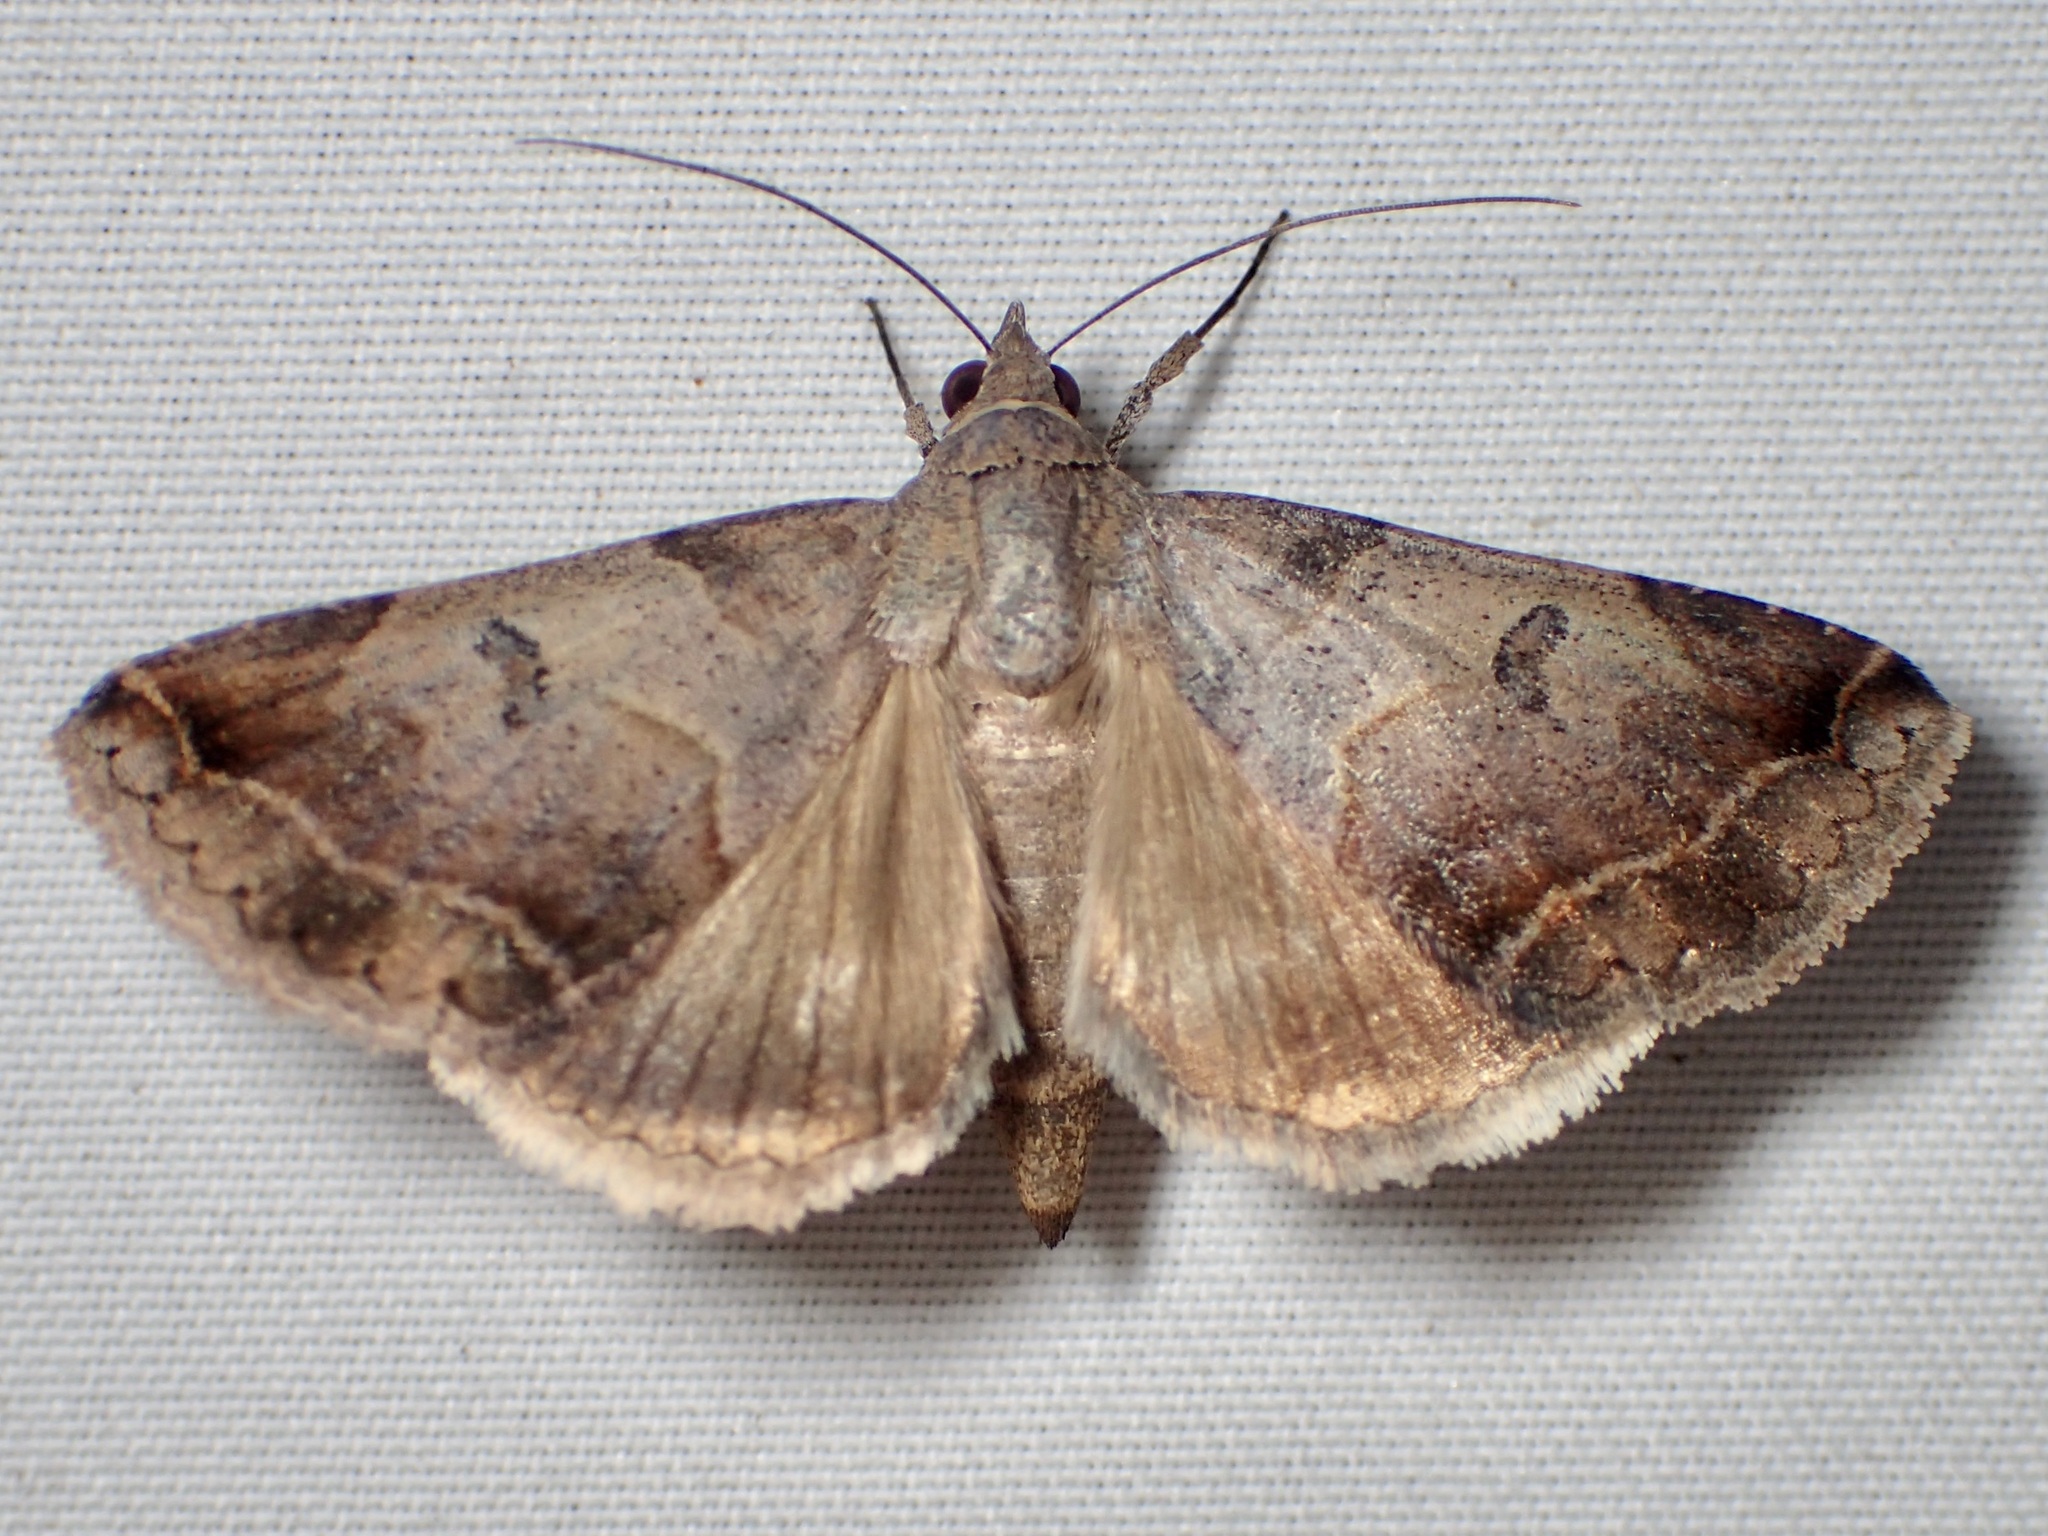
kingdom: Animalia
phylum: Arthropoda
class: Insecta
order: Lepidoptera
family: Erebidae
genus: Panula
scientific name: Panula inconstans
